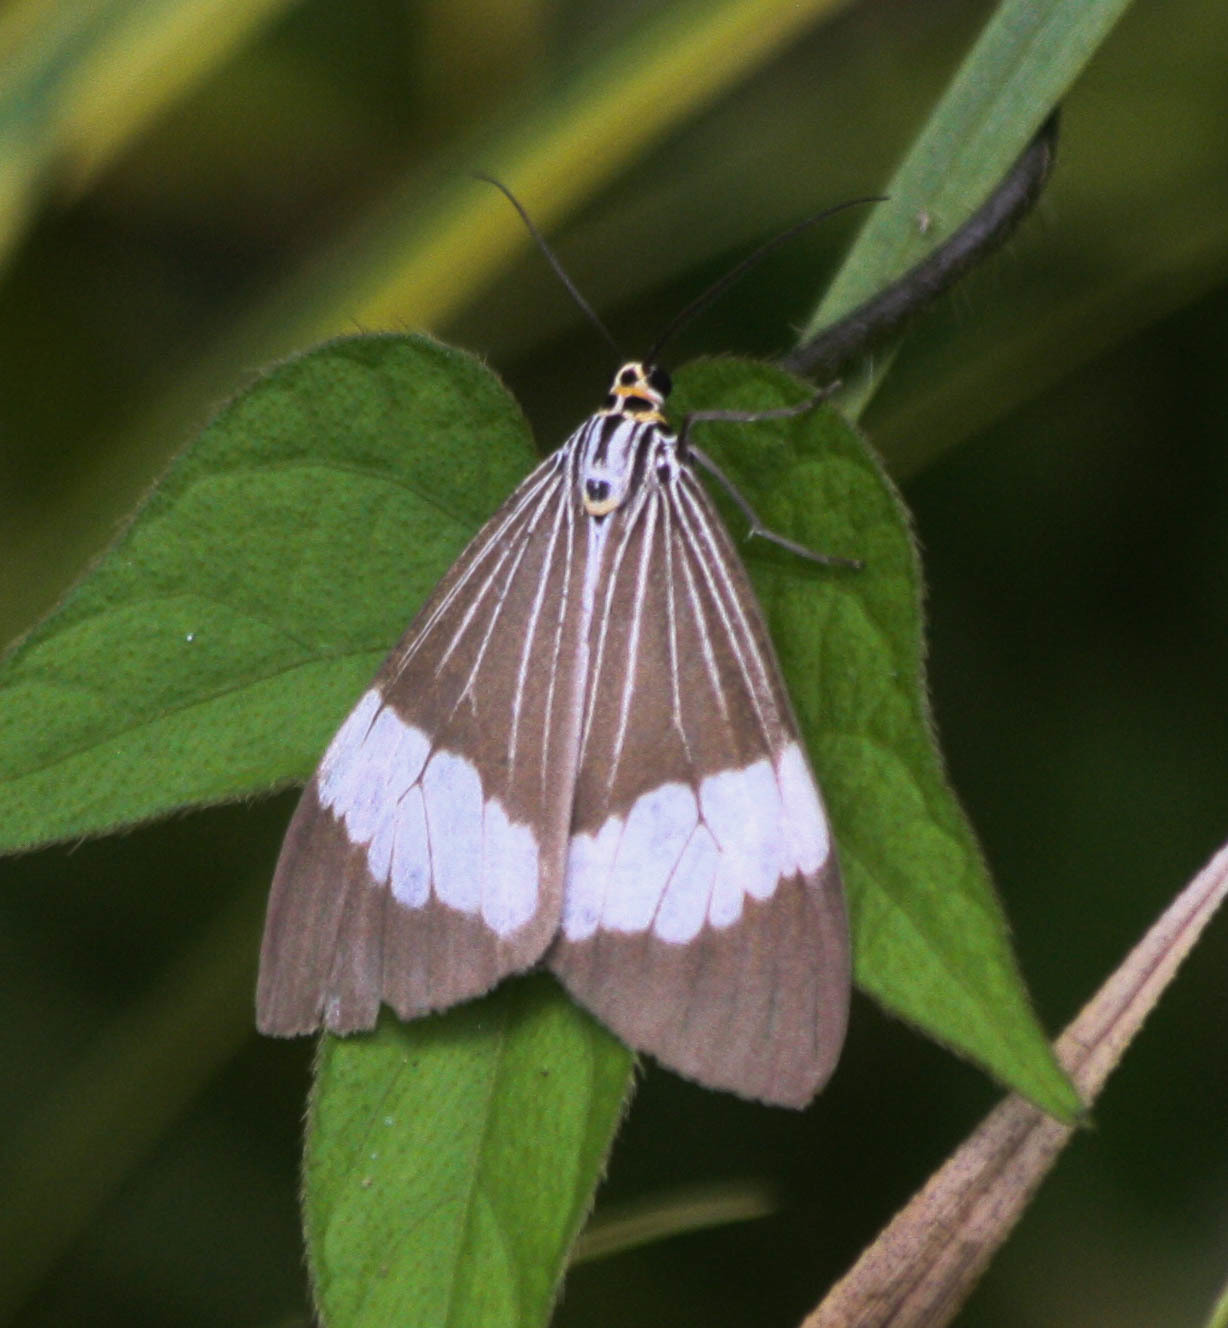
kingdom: Animalia
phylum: Arthropoda
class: Insecta
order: Lepidoptera
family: Erebidae
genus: Nyctemera
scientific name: Nyctemera baulus
